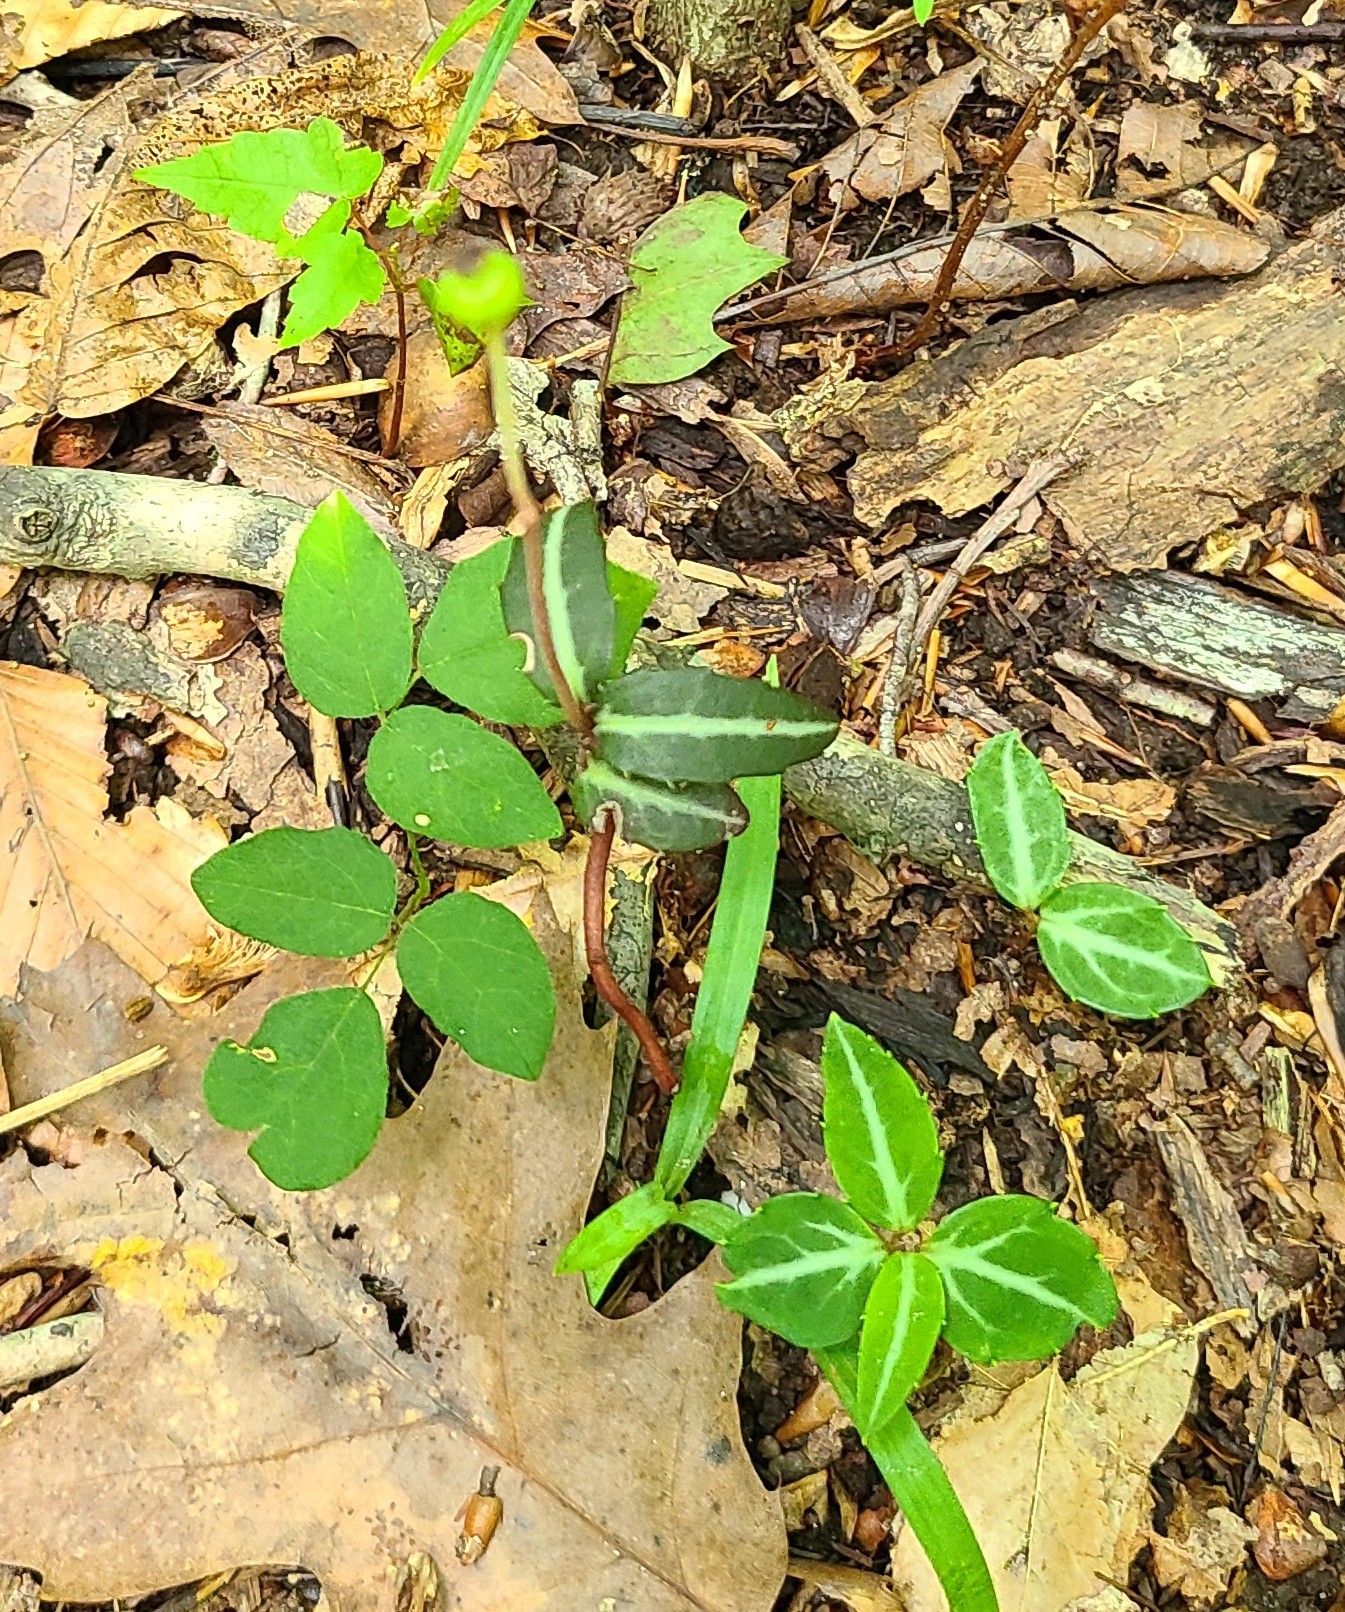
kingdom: Plantae
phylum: Tracheophyta
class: Magnoliopsida
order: Ericales
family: Ericaceae
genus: Chimaphila
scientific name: Chimaphila maculata
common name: Spotted pipsissewa
